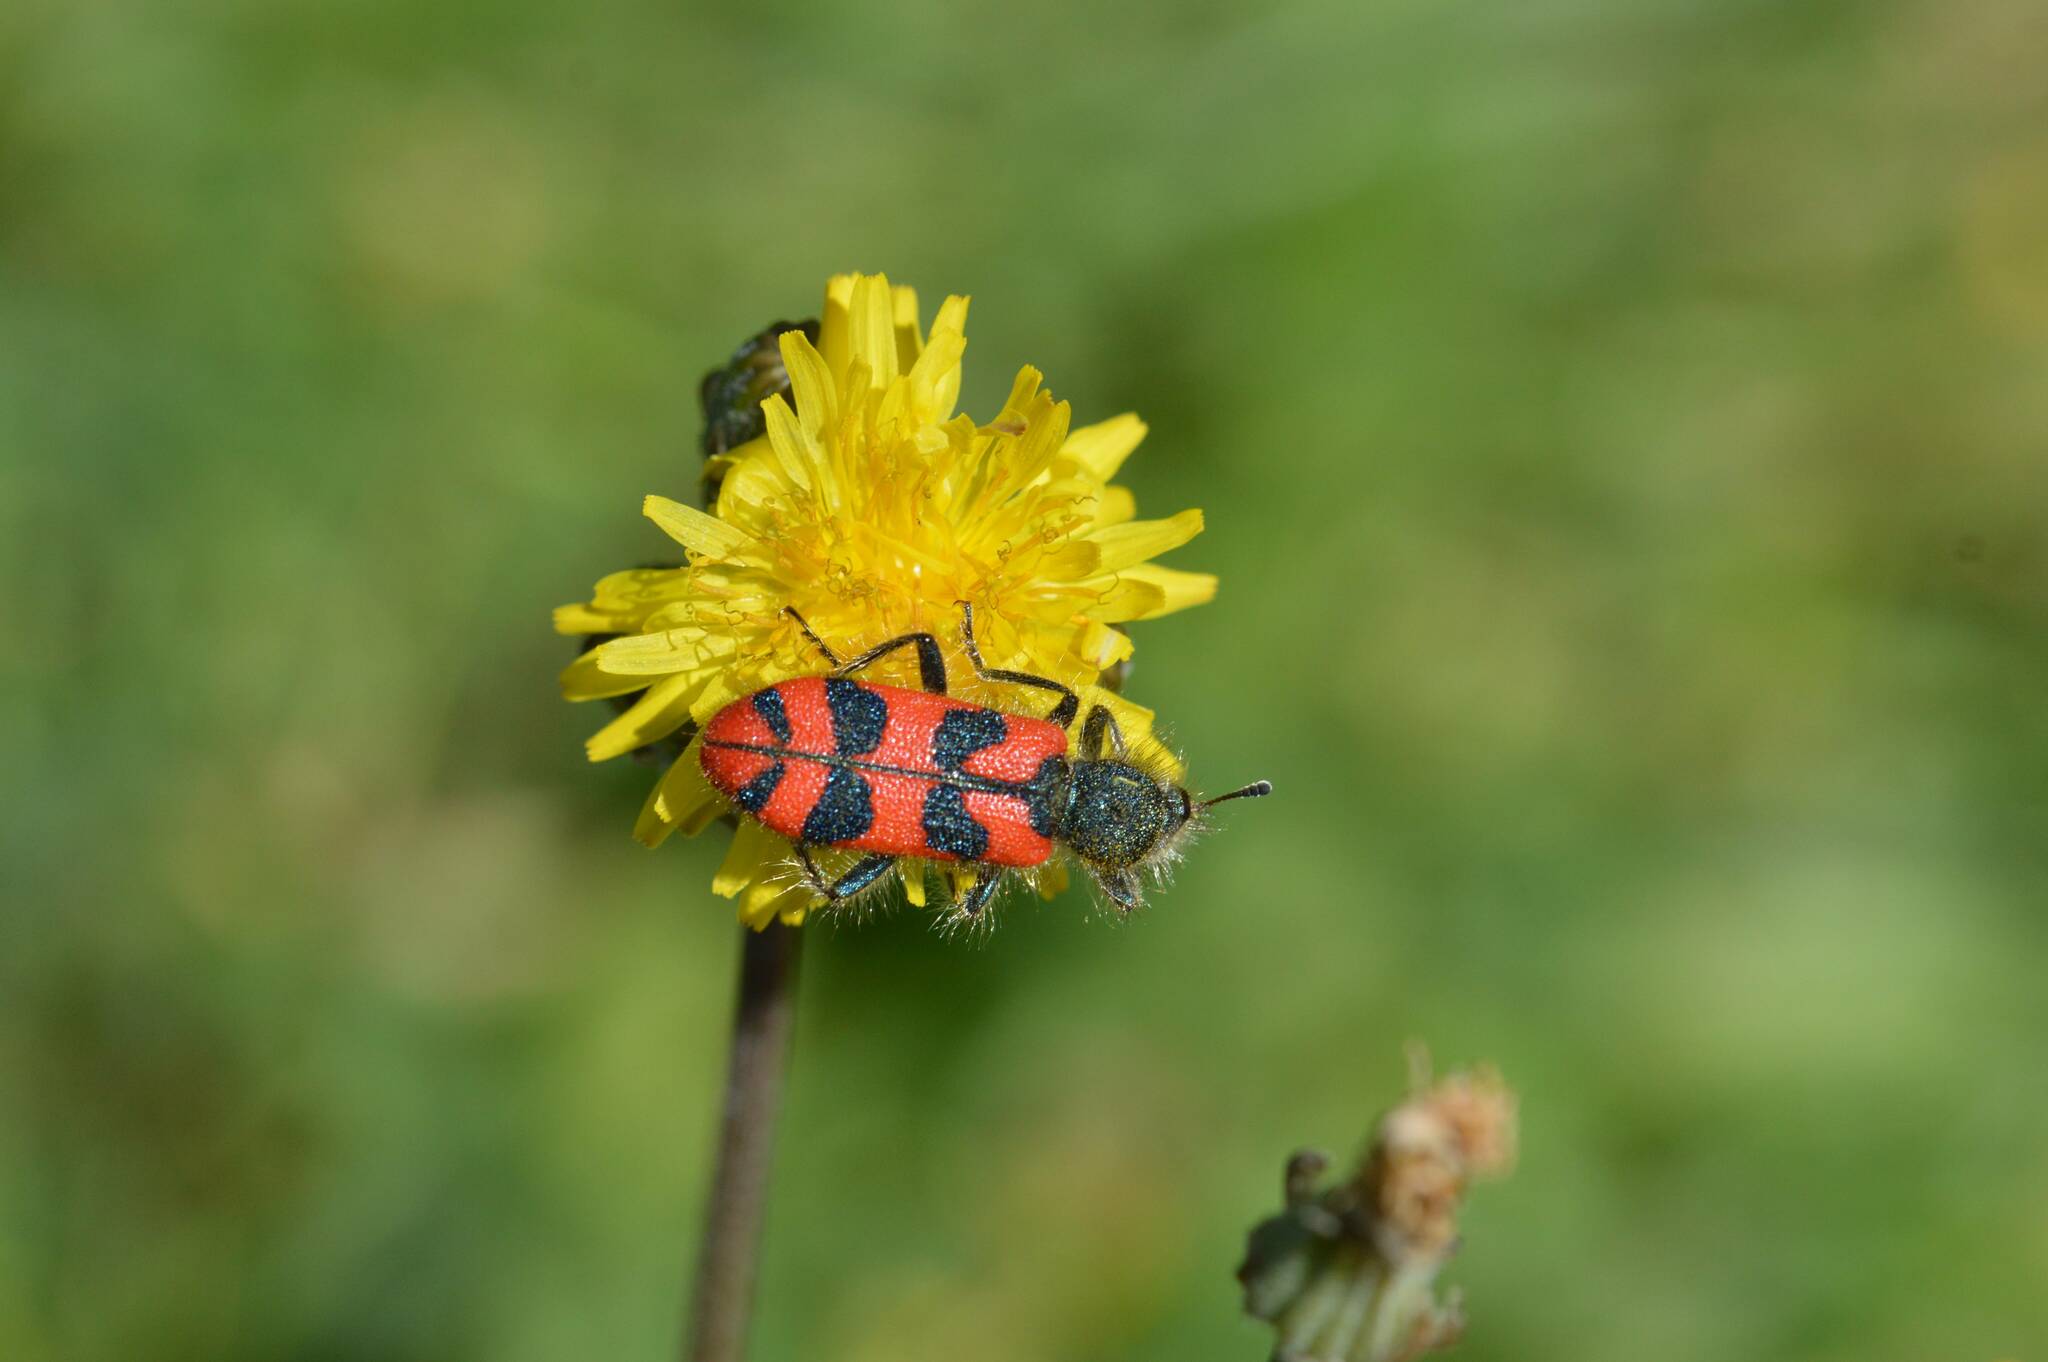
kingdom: Animalia
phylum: Arthropoda
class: Insecta
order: Coleoptera
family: Cleridae
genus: Trichodes
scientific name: Trichodes umbellatarum
